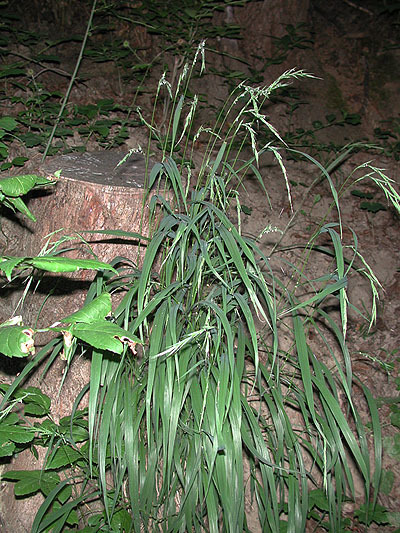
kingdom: Plantae
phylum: Tracheophyta
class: Liliopsida
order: Poales
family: Poaceae
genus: Brachypodium
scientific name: Brachypodium sylvaticum
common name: False-brome
